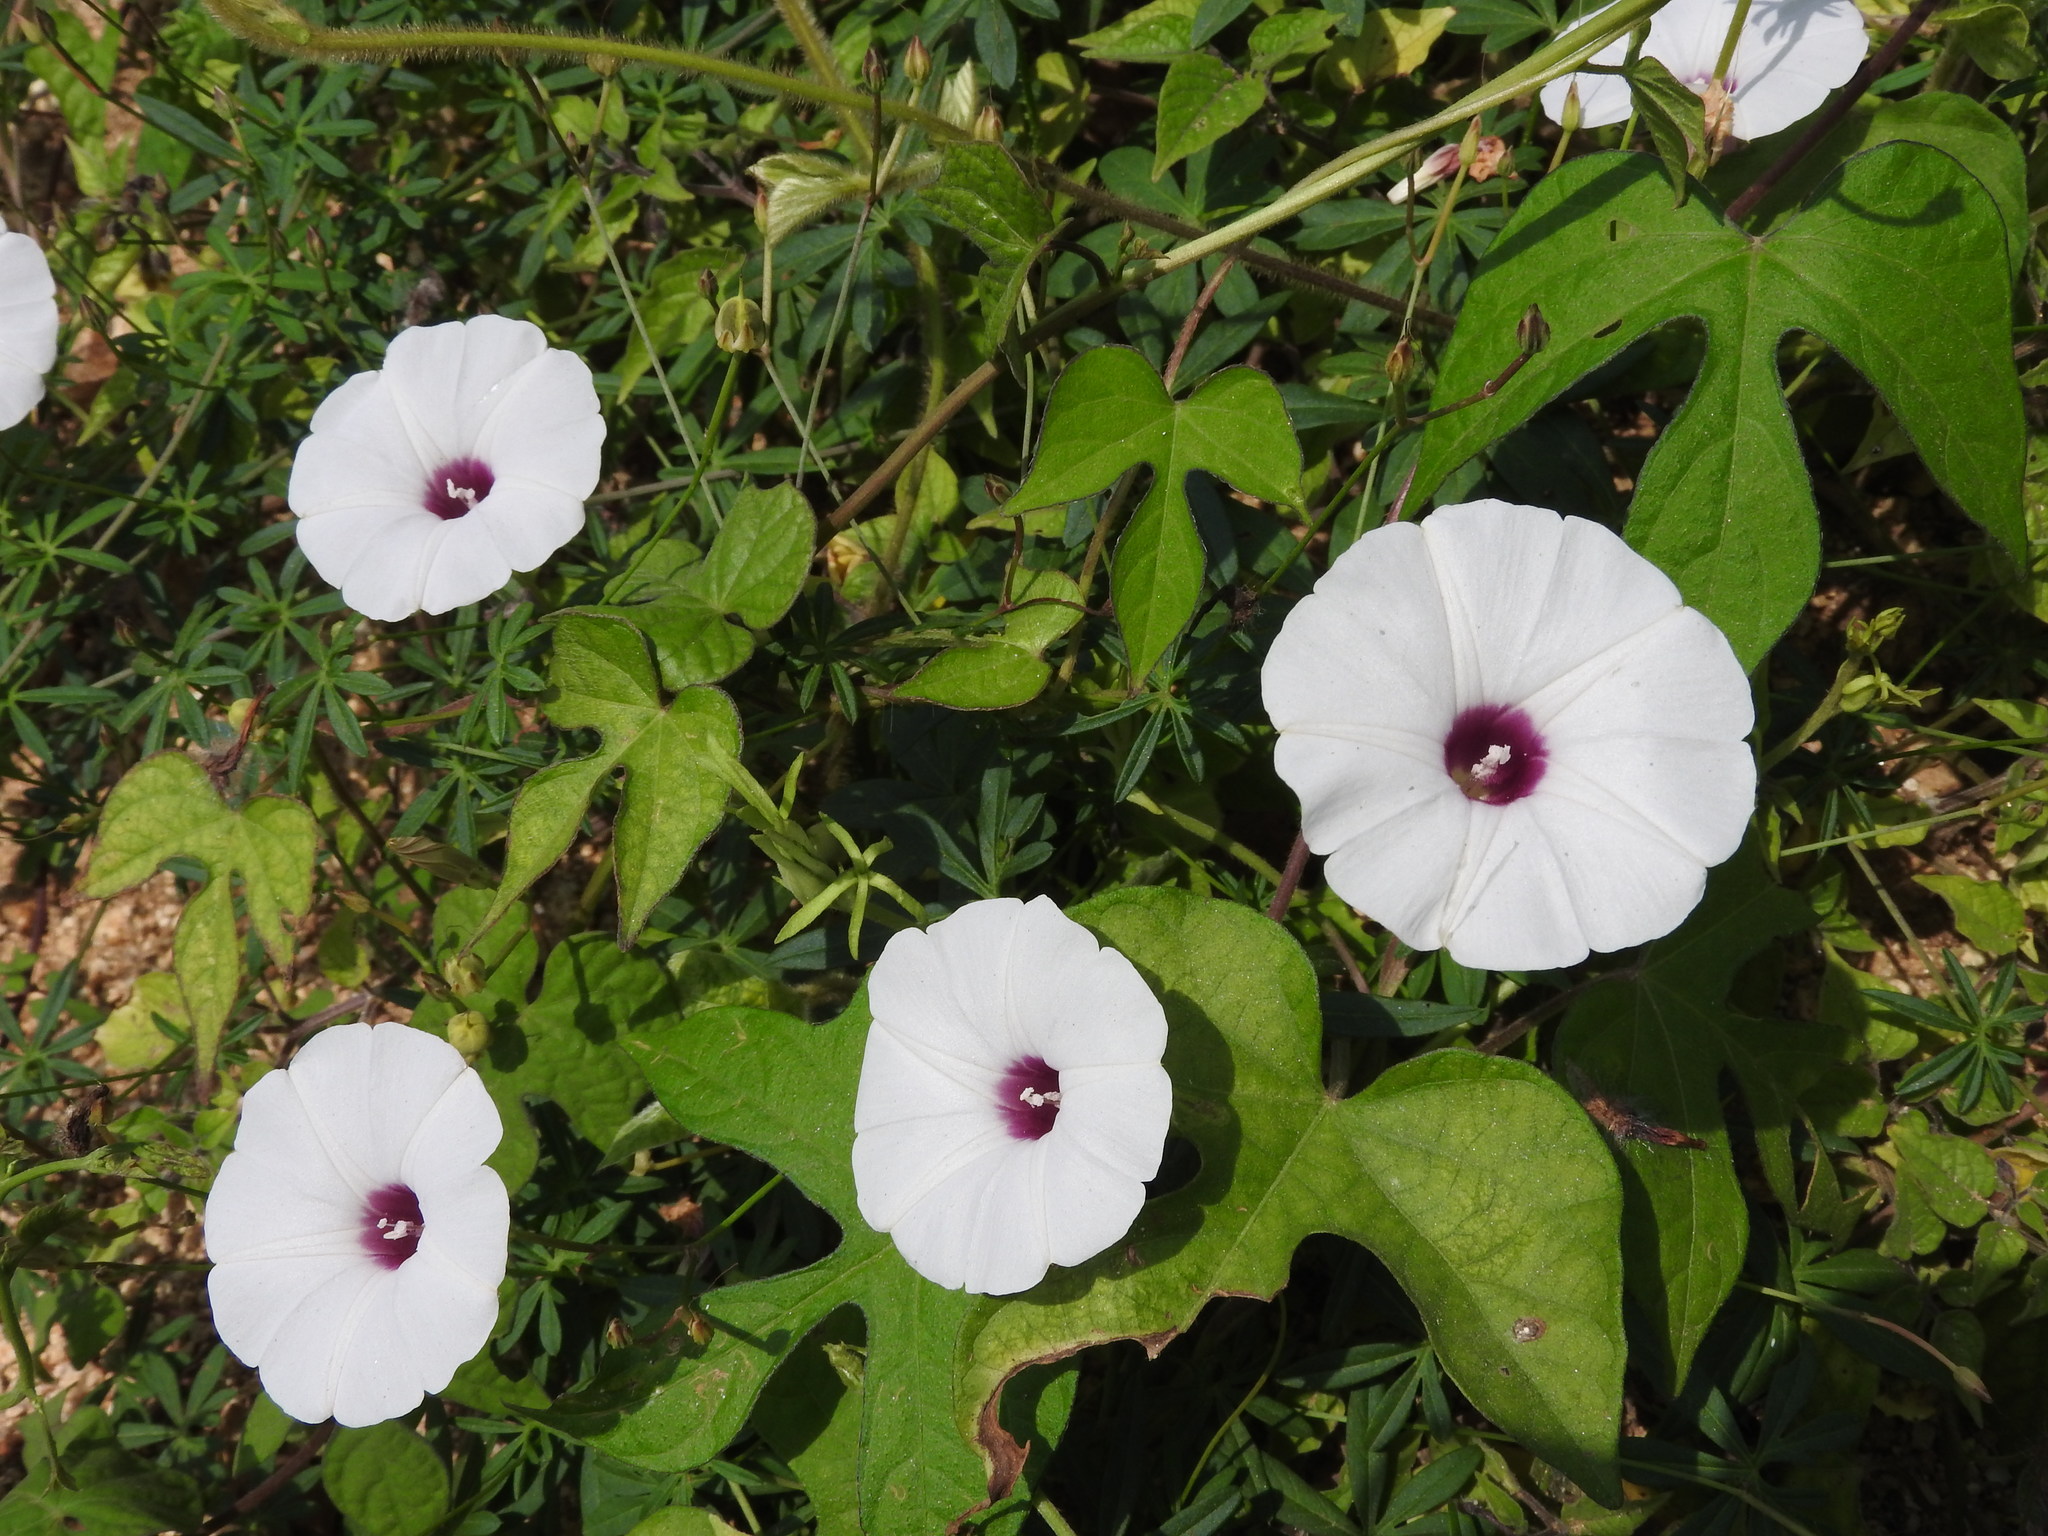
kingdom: Plantae
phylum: Tracheophyta
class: Magnoliopsida
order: Solanales
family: Convolvulaceae
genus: Ipomoea
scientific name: Ipomoea ternifolia
